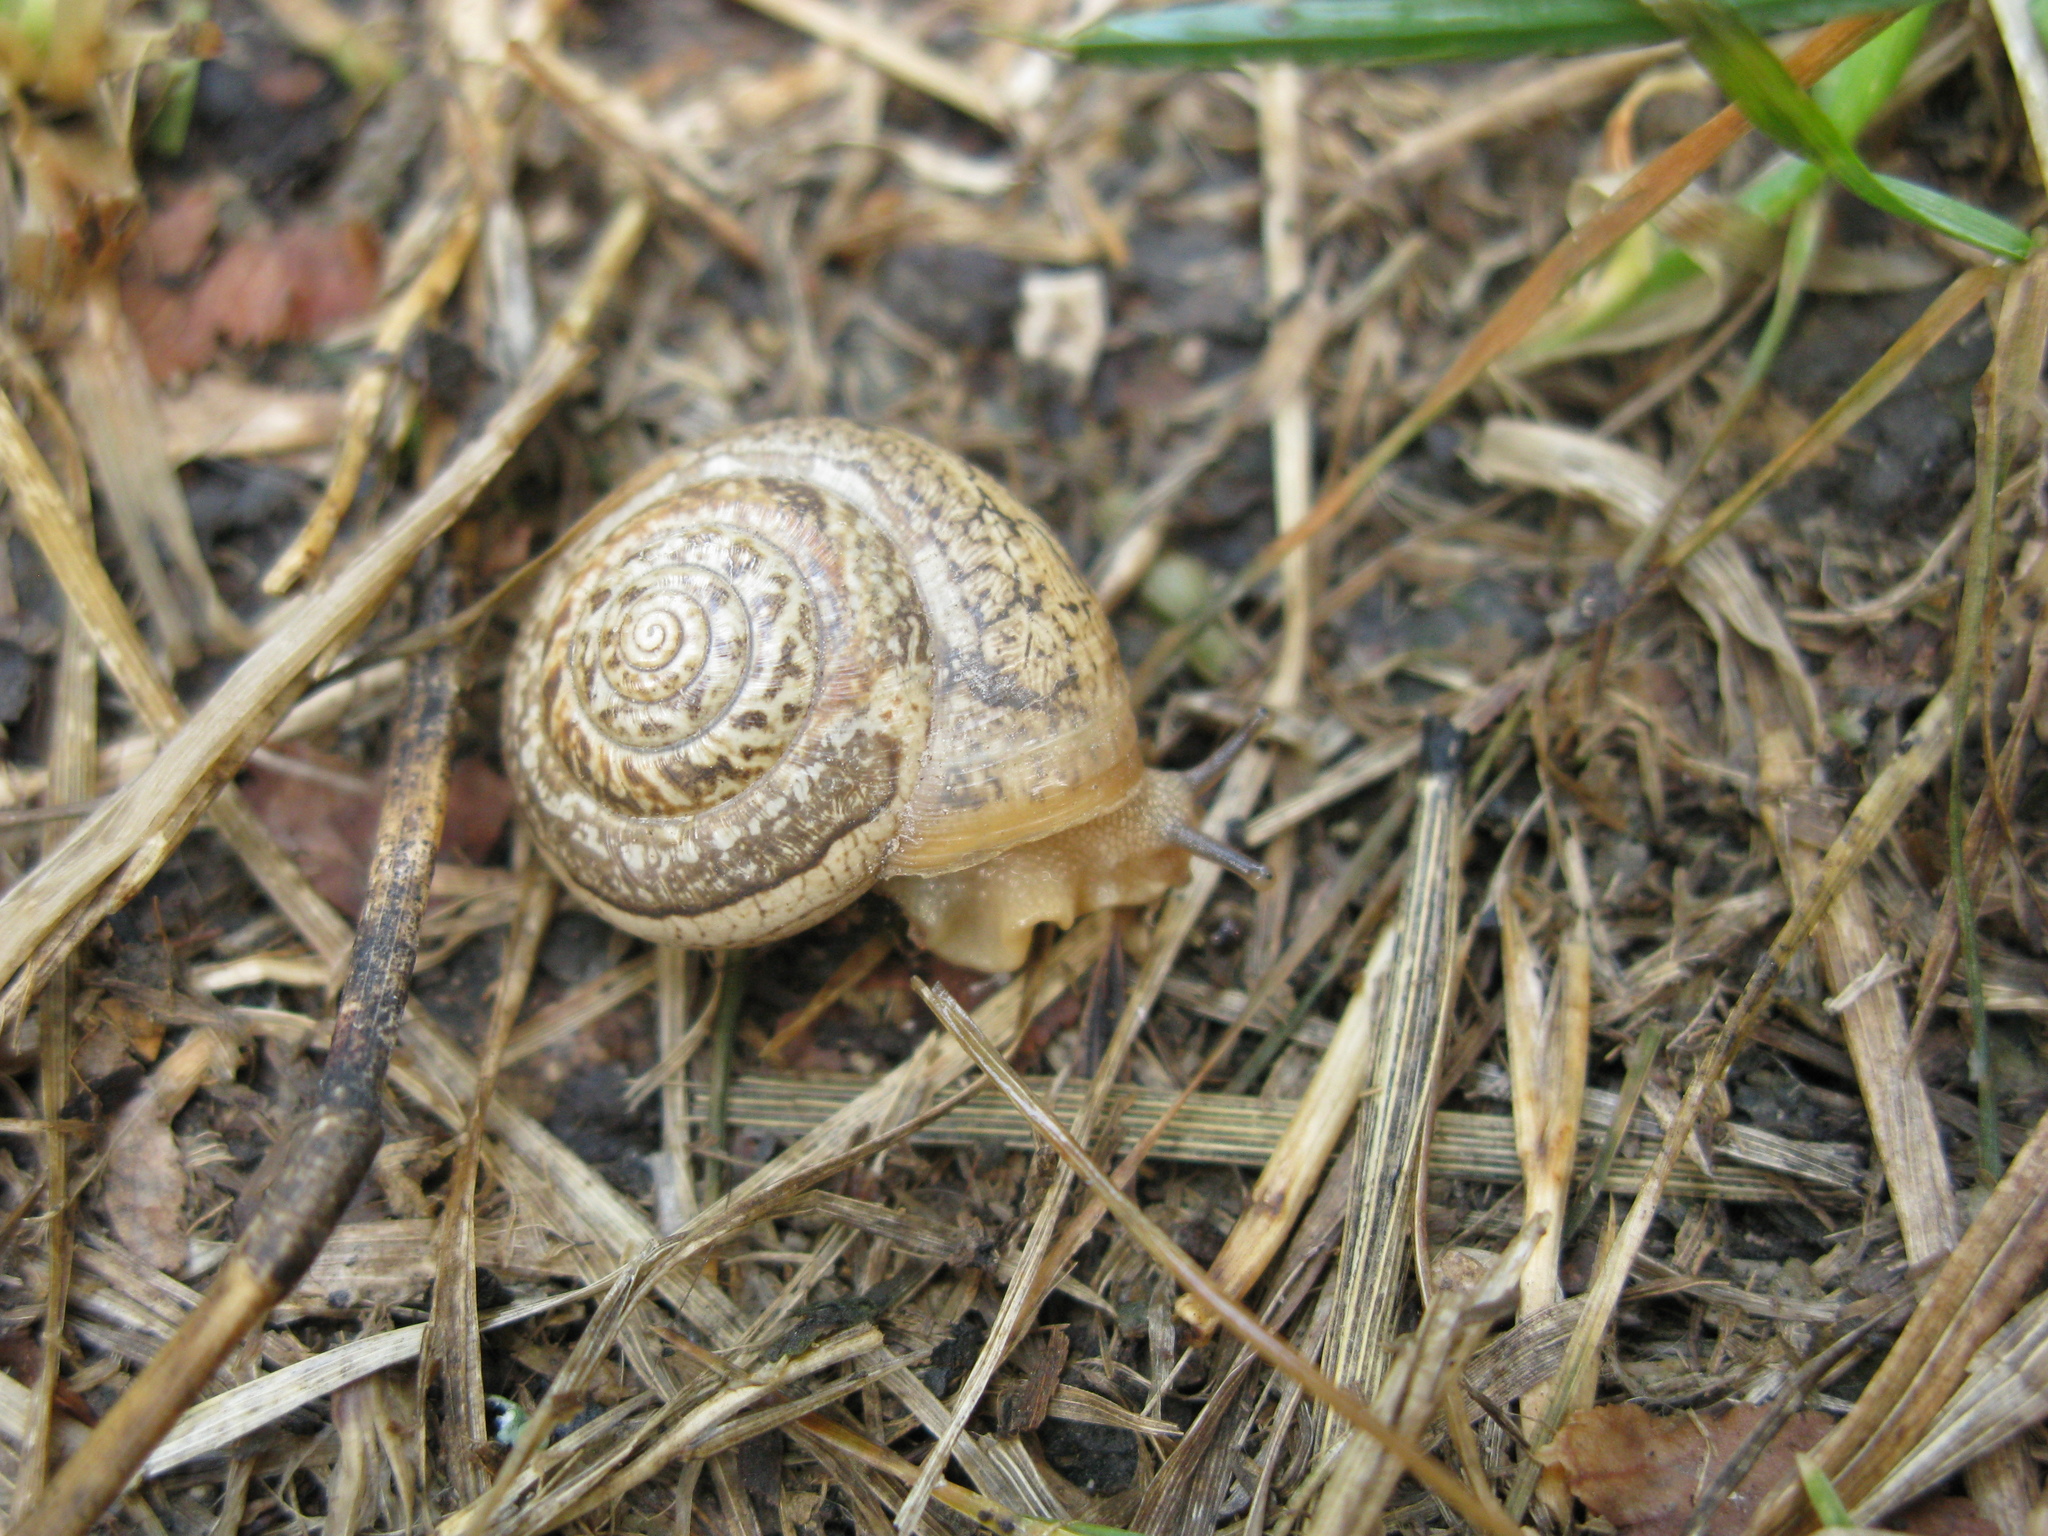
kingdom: Animalia
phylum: Mollusca
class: Gastropoda
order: Stylommatophora
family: Hygromiidae
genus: Monacha
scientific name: Monacha fruticola
